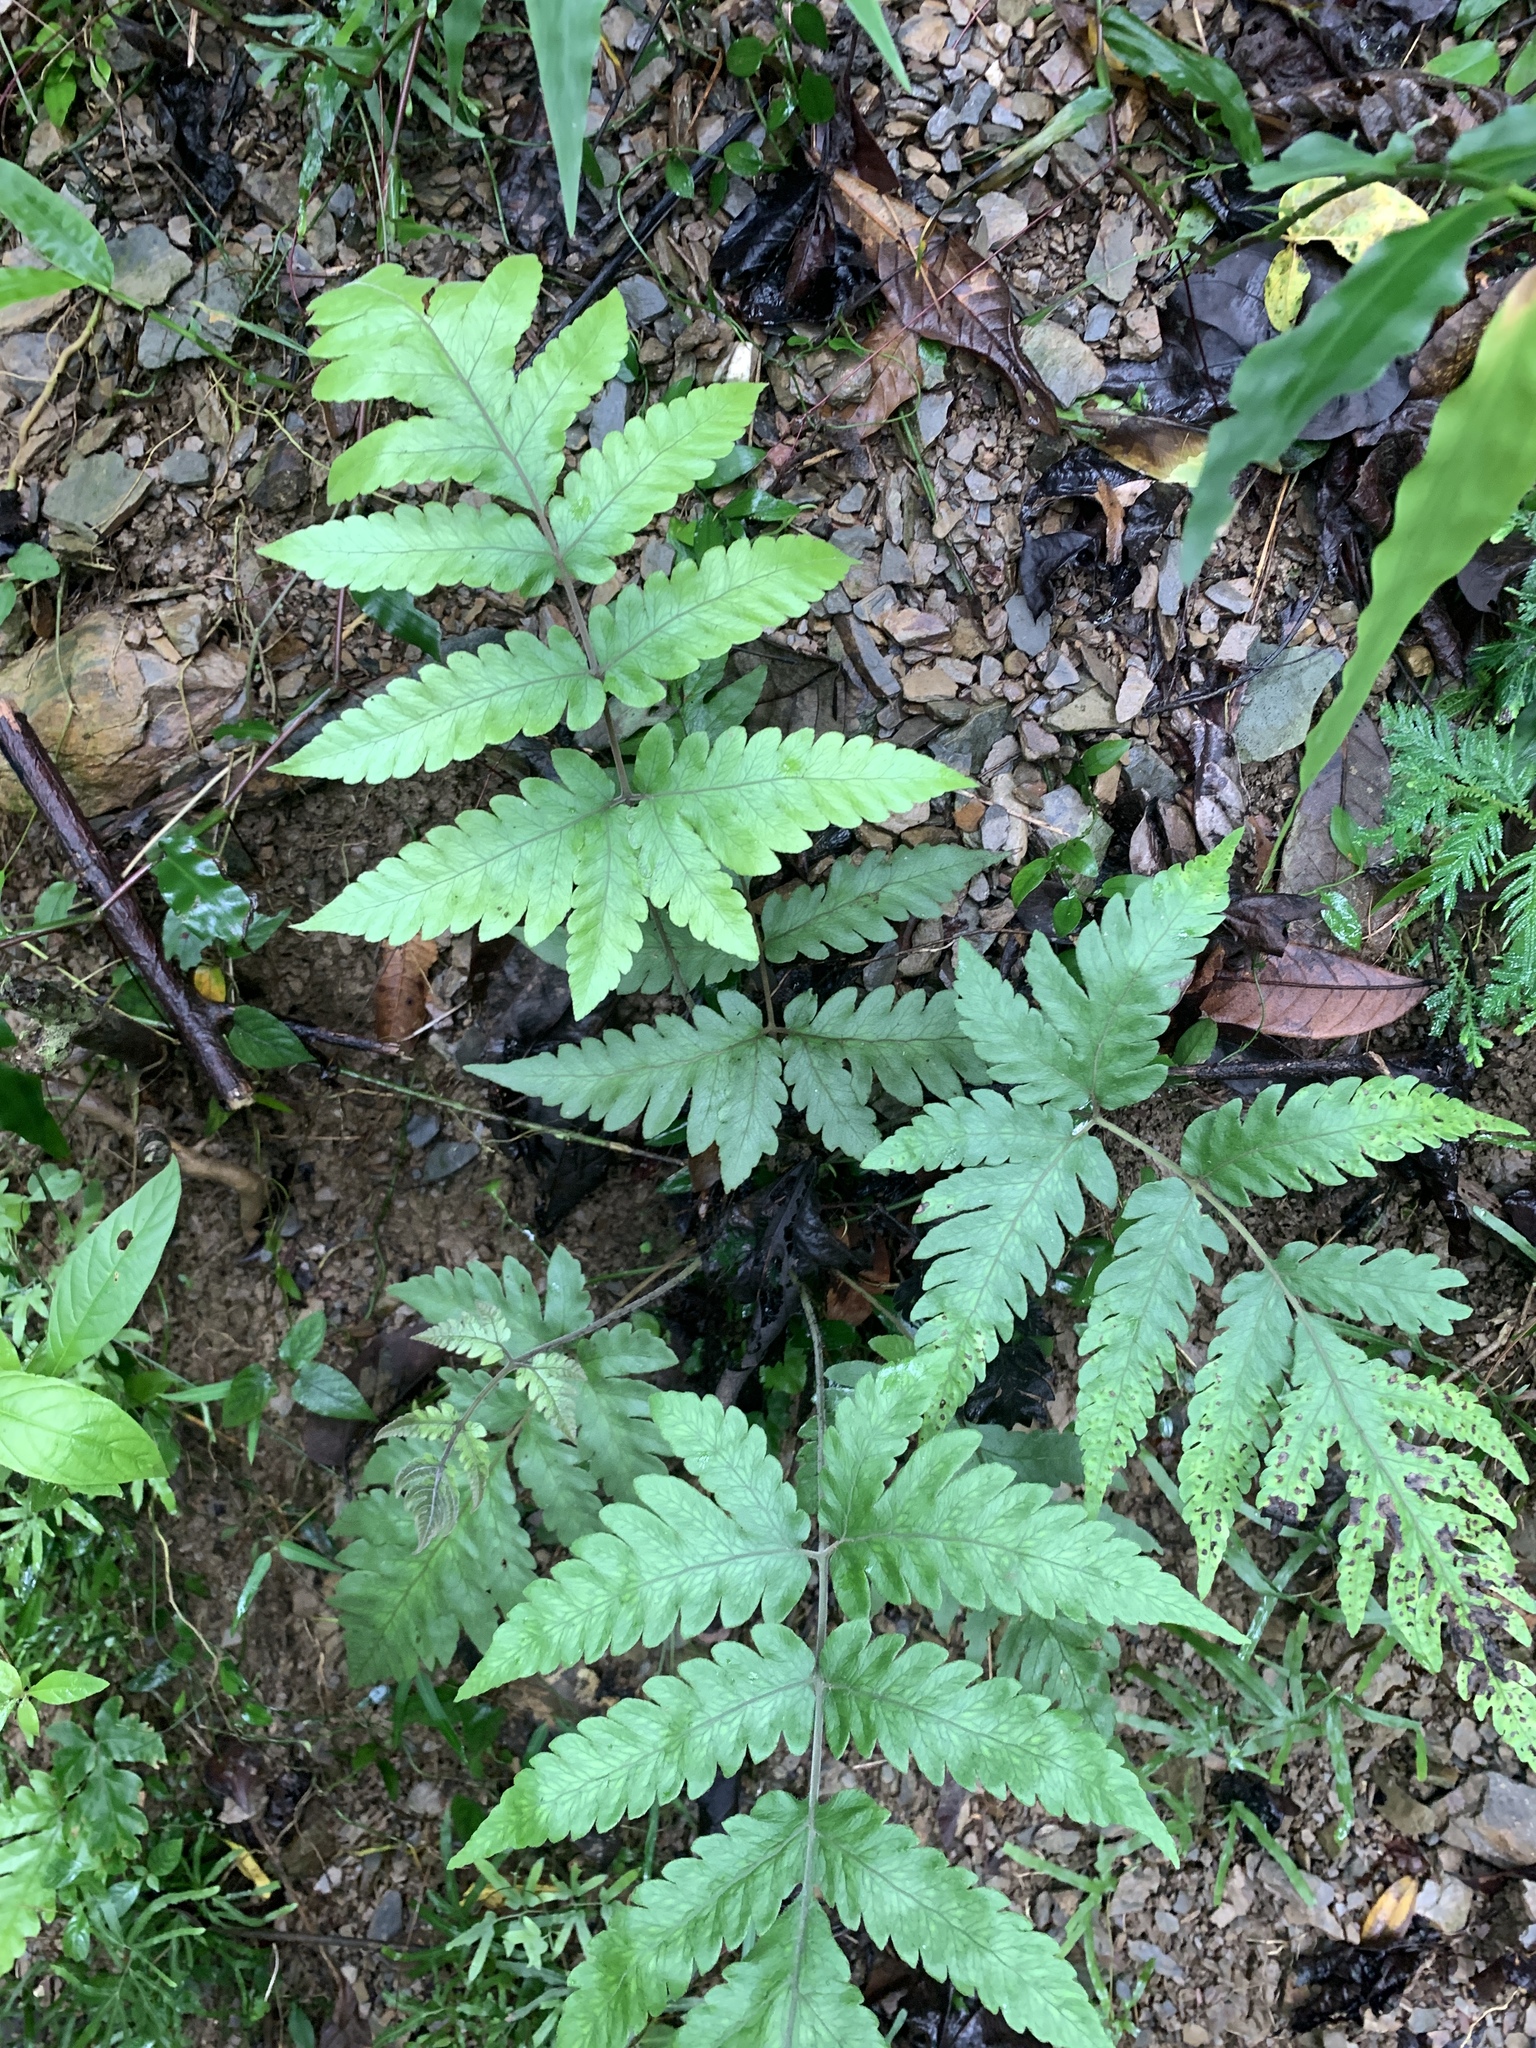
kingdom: Plantae
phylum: Tracheophyta
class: Polypodiopsida
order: Polypodiales
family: Tectariaceae
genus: Tectaria
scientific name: Tectaria fuscipes
